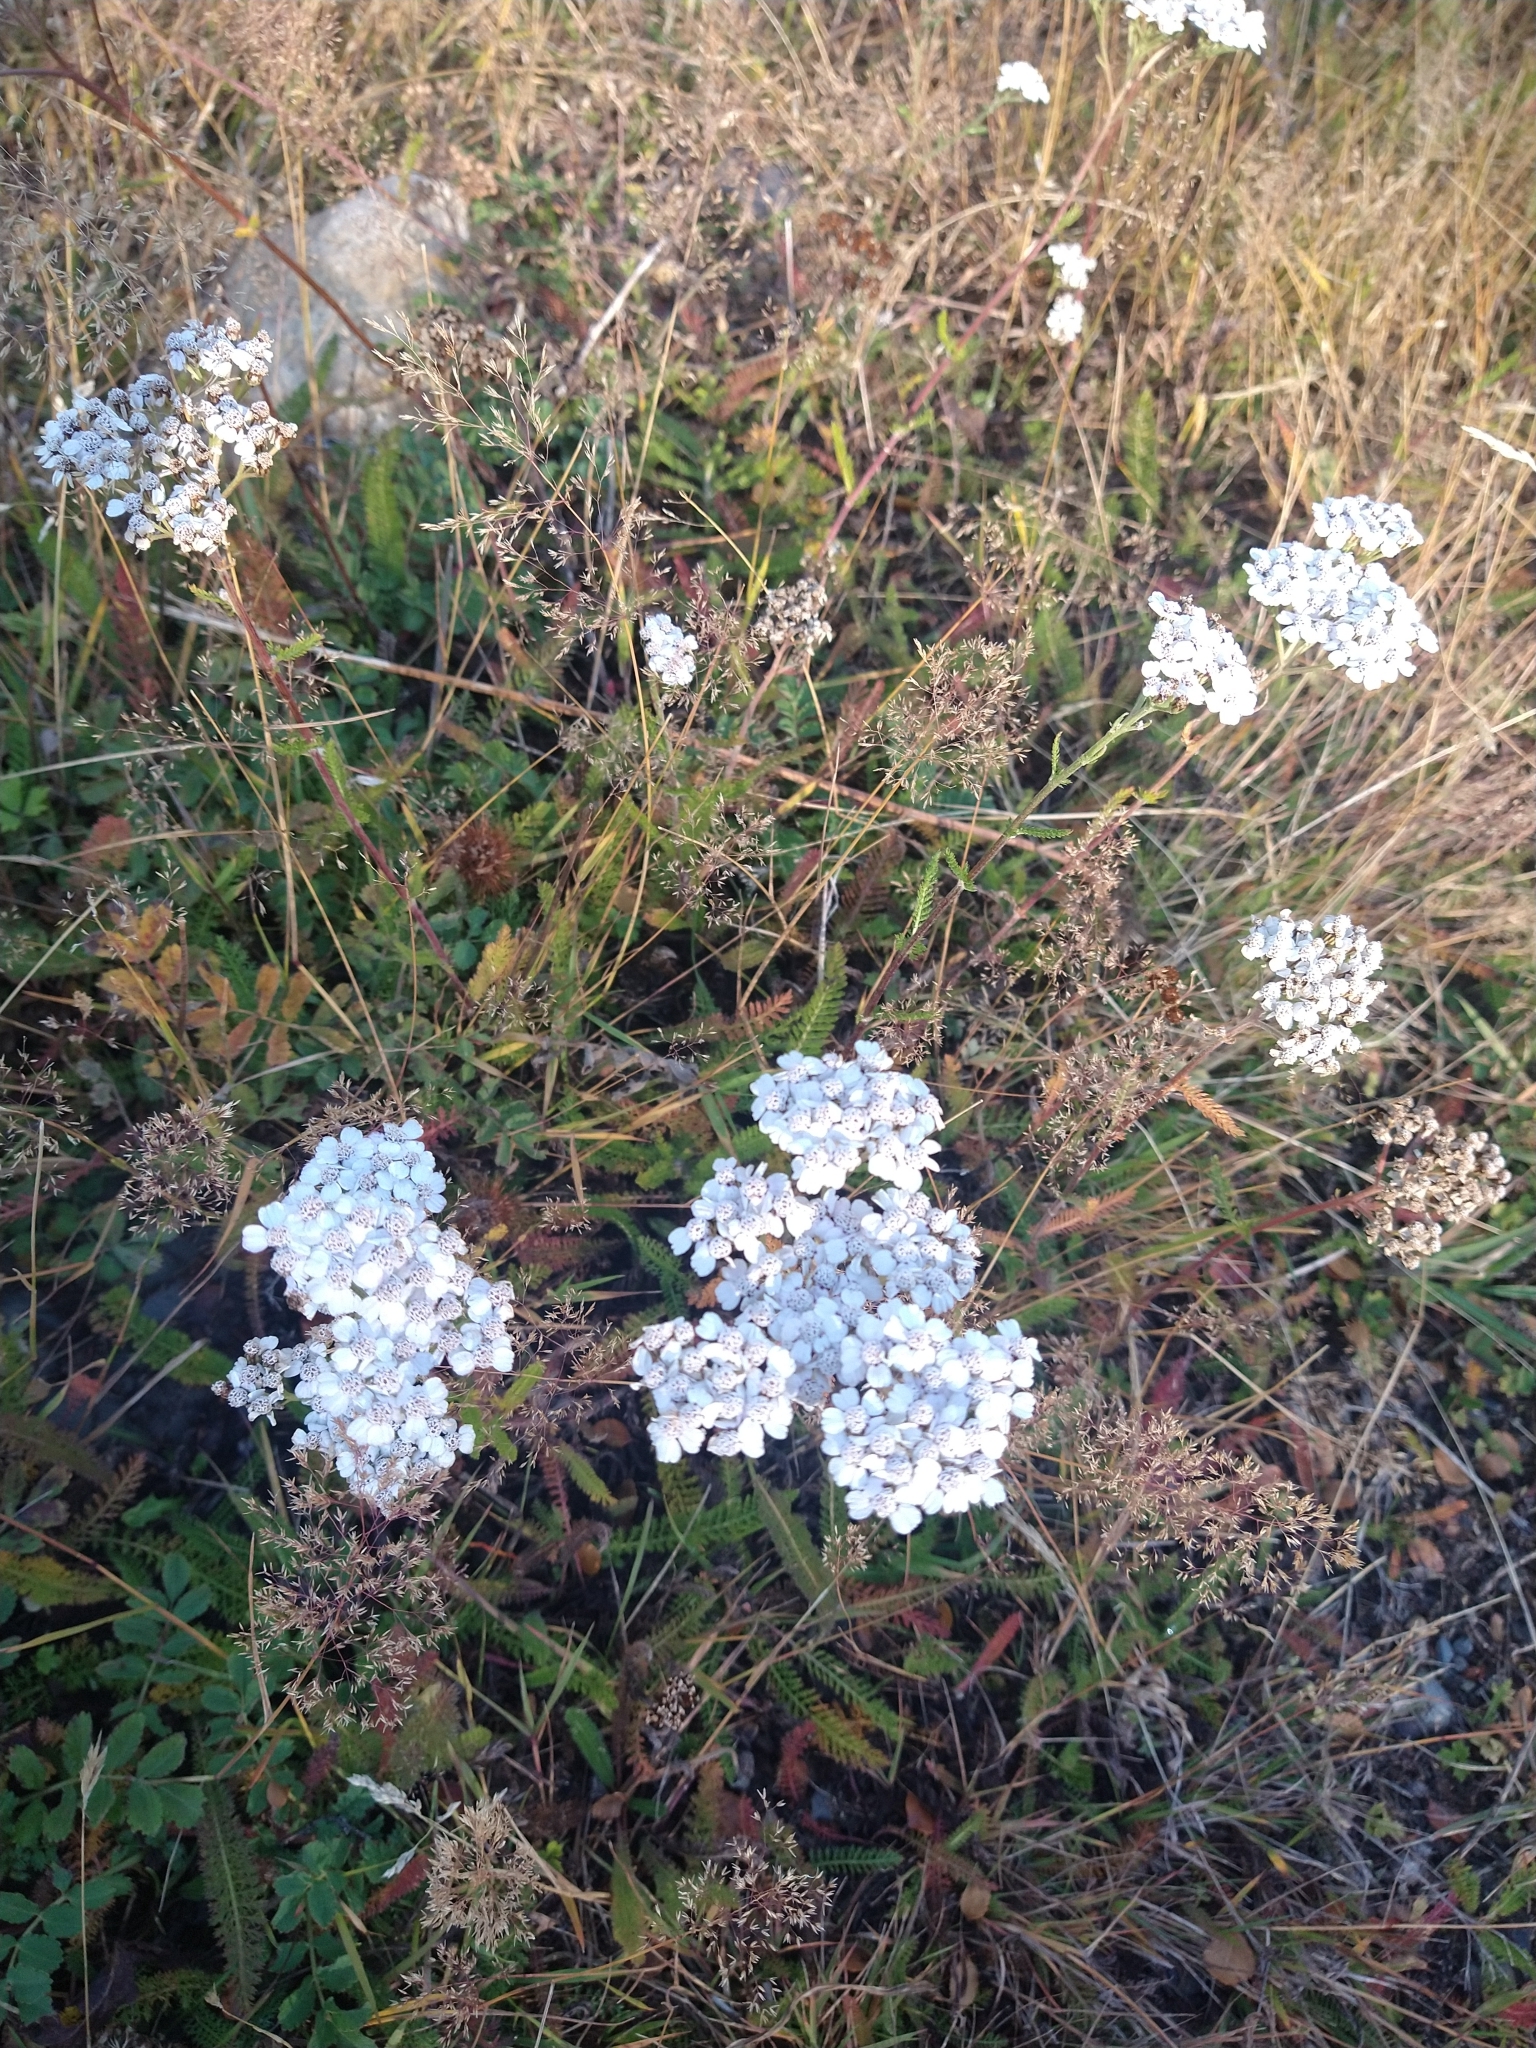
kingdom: Plantae
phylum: Tracheophyta
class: Magnoliopsida
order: Asterales
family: Asteraceae
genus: Achillea
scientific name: Achillea millefolium
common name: Yarrow
